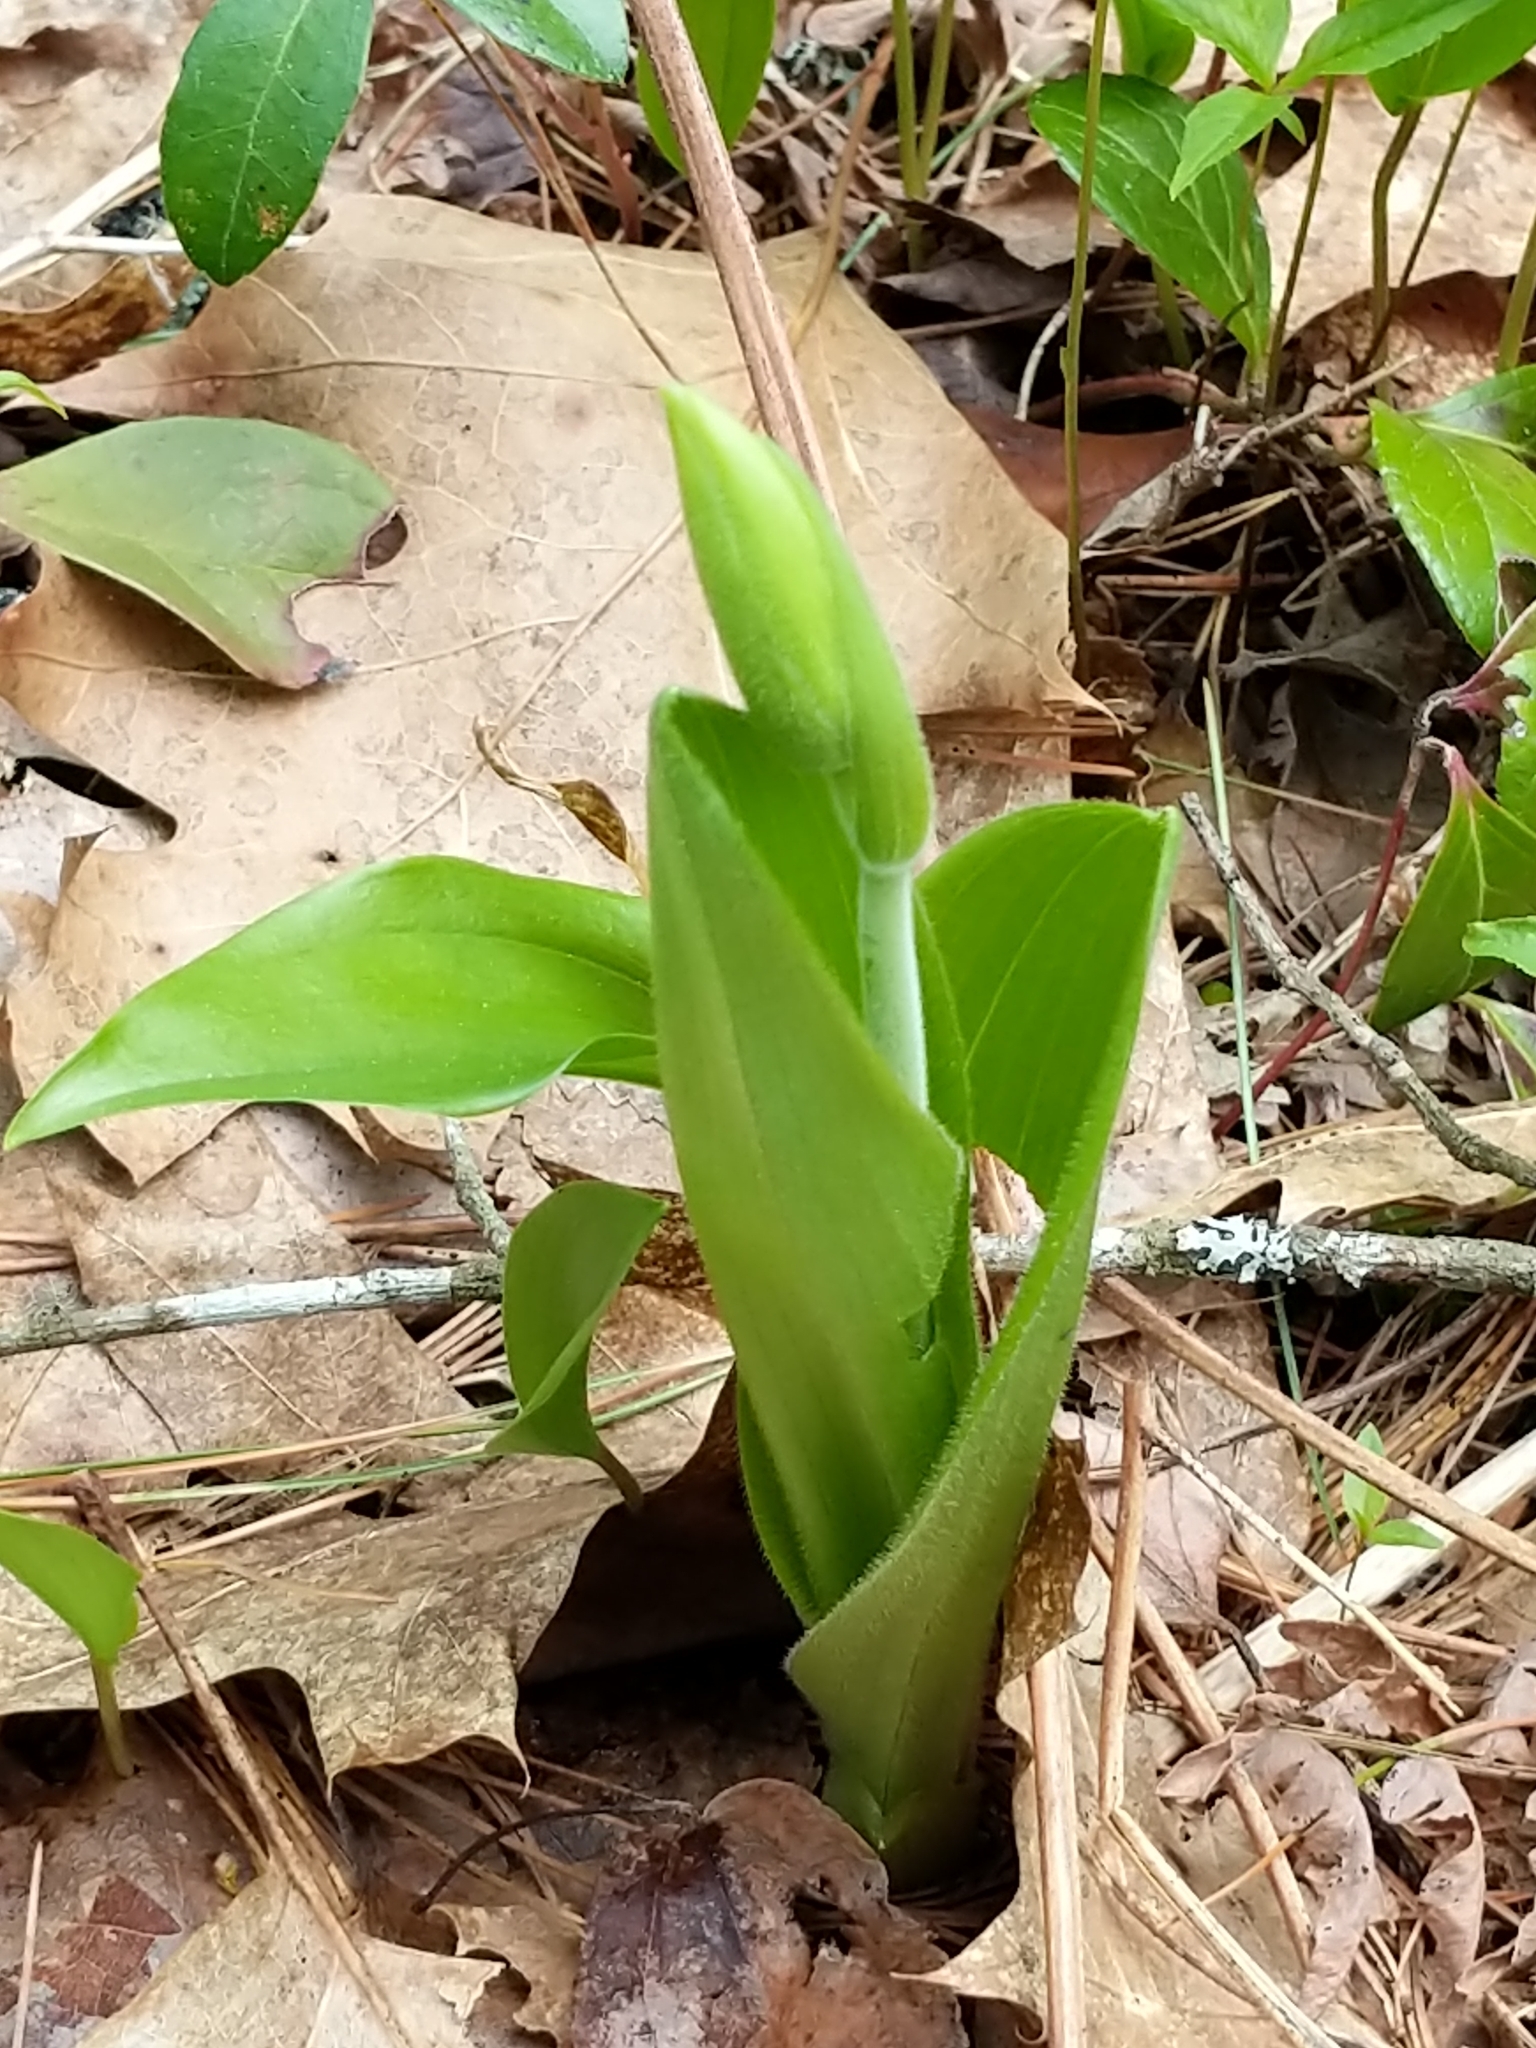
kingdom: Plantae
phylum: Tracheophyta
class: Liliopsida
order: Asparagales
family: Orchidaceae
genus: Cypripedium
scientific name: Cypripedium acaule
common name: Pink lady's-slipper
